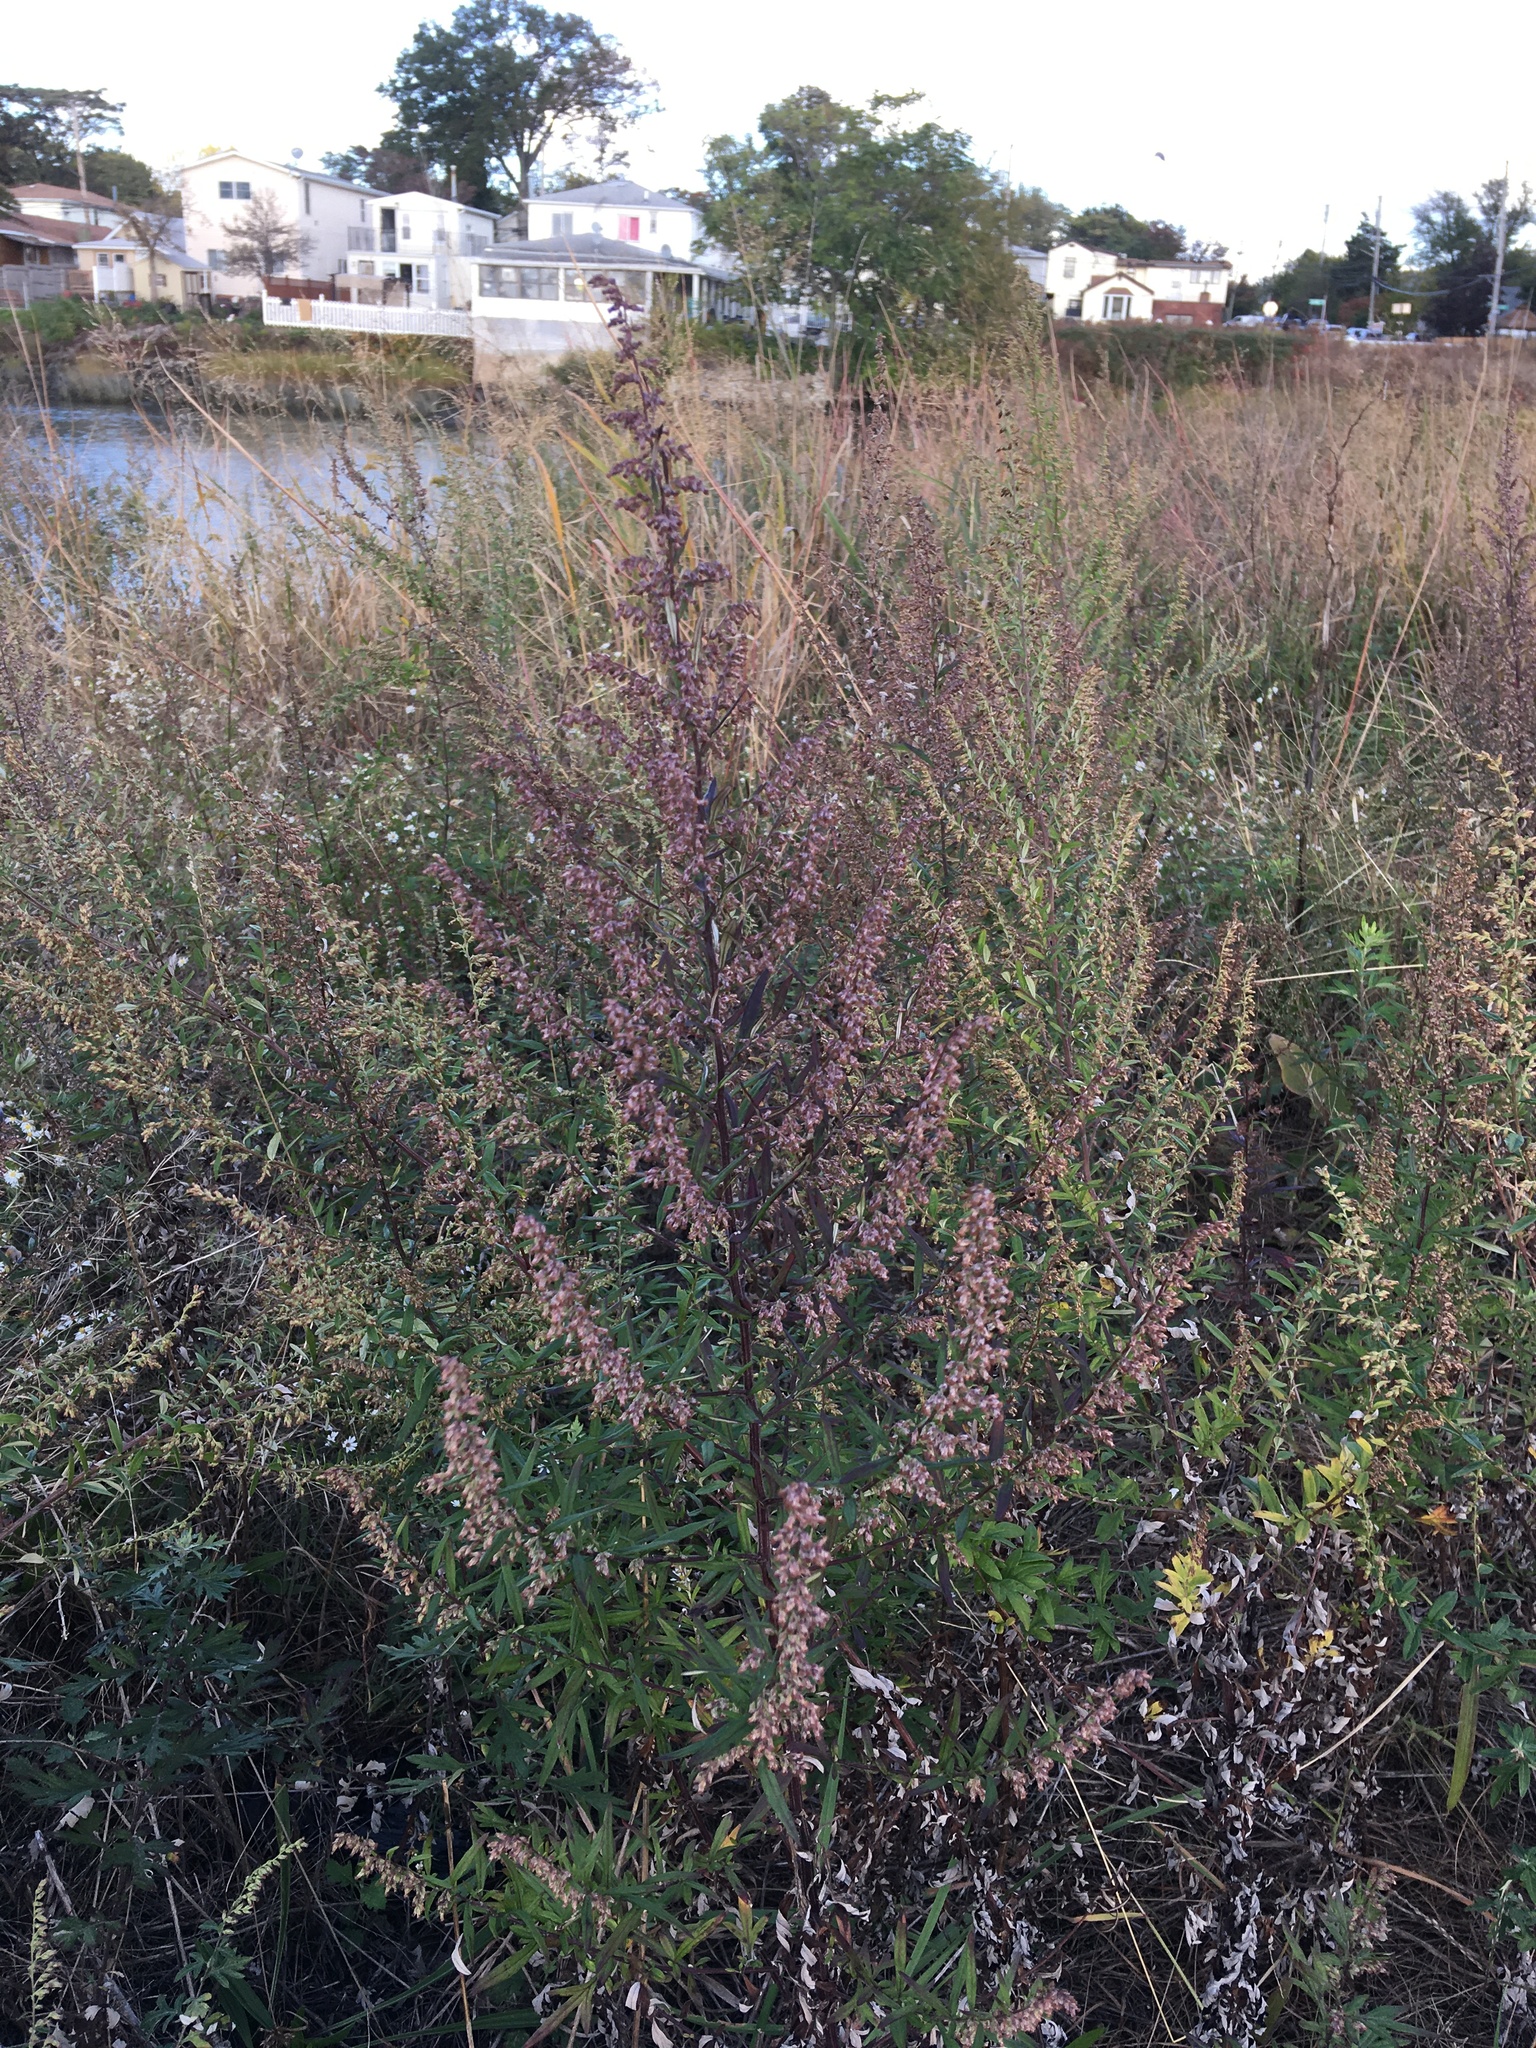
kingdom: Plantae
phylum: Tracheophyta
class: Magnoliopsida
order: Asterales
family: Asteraceae
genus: Artemisia
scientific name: Artemisia vulgaris
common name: Mugwort
